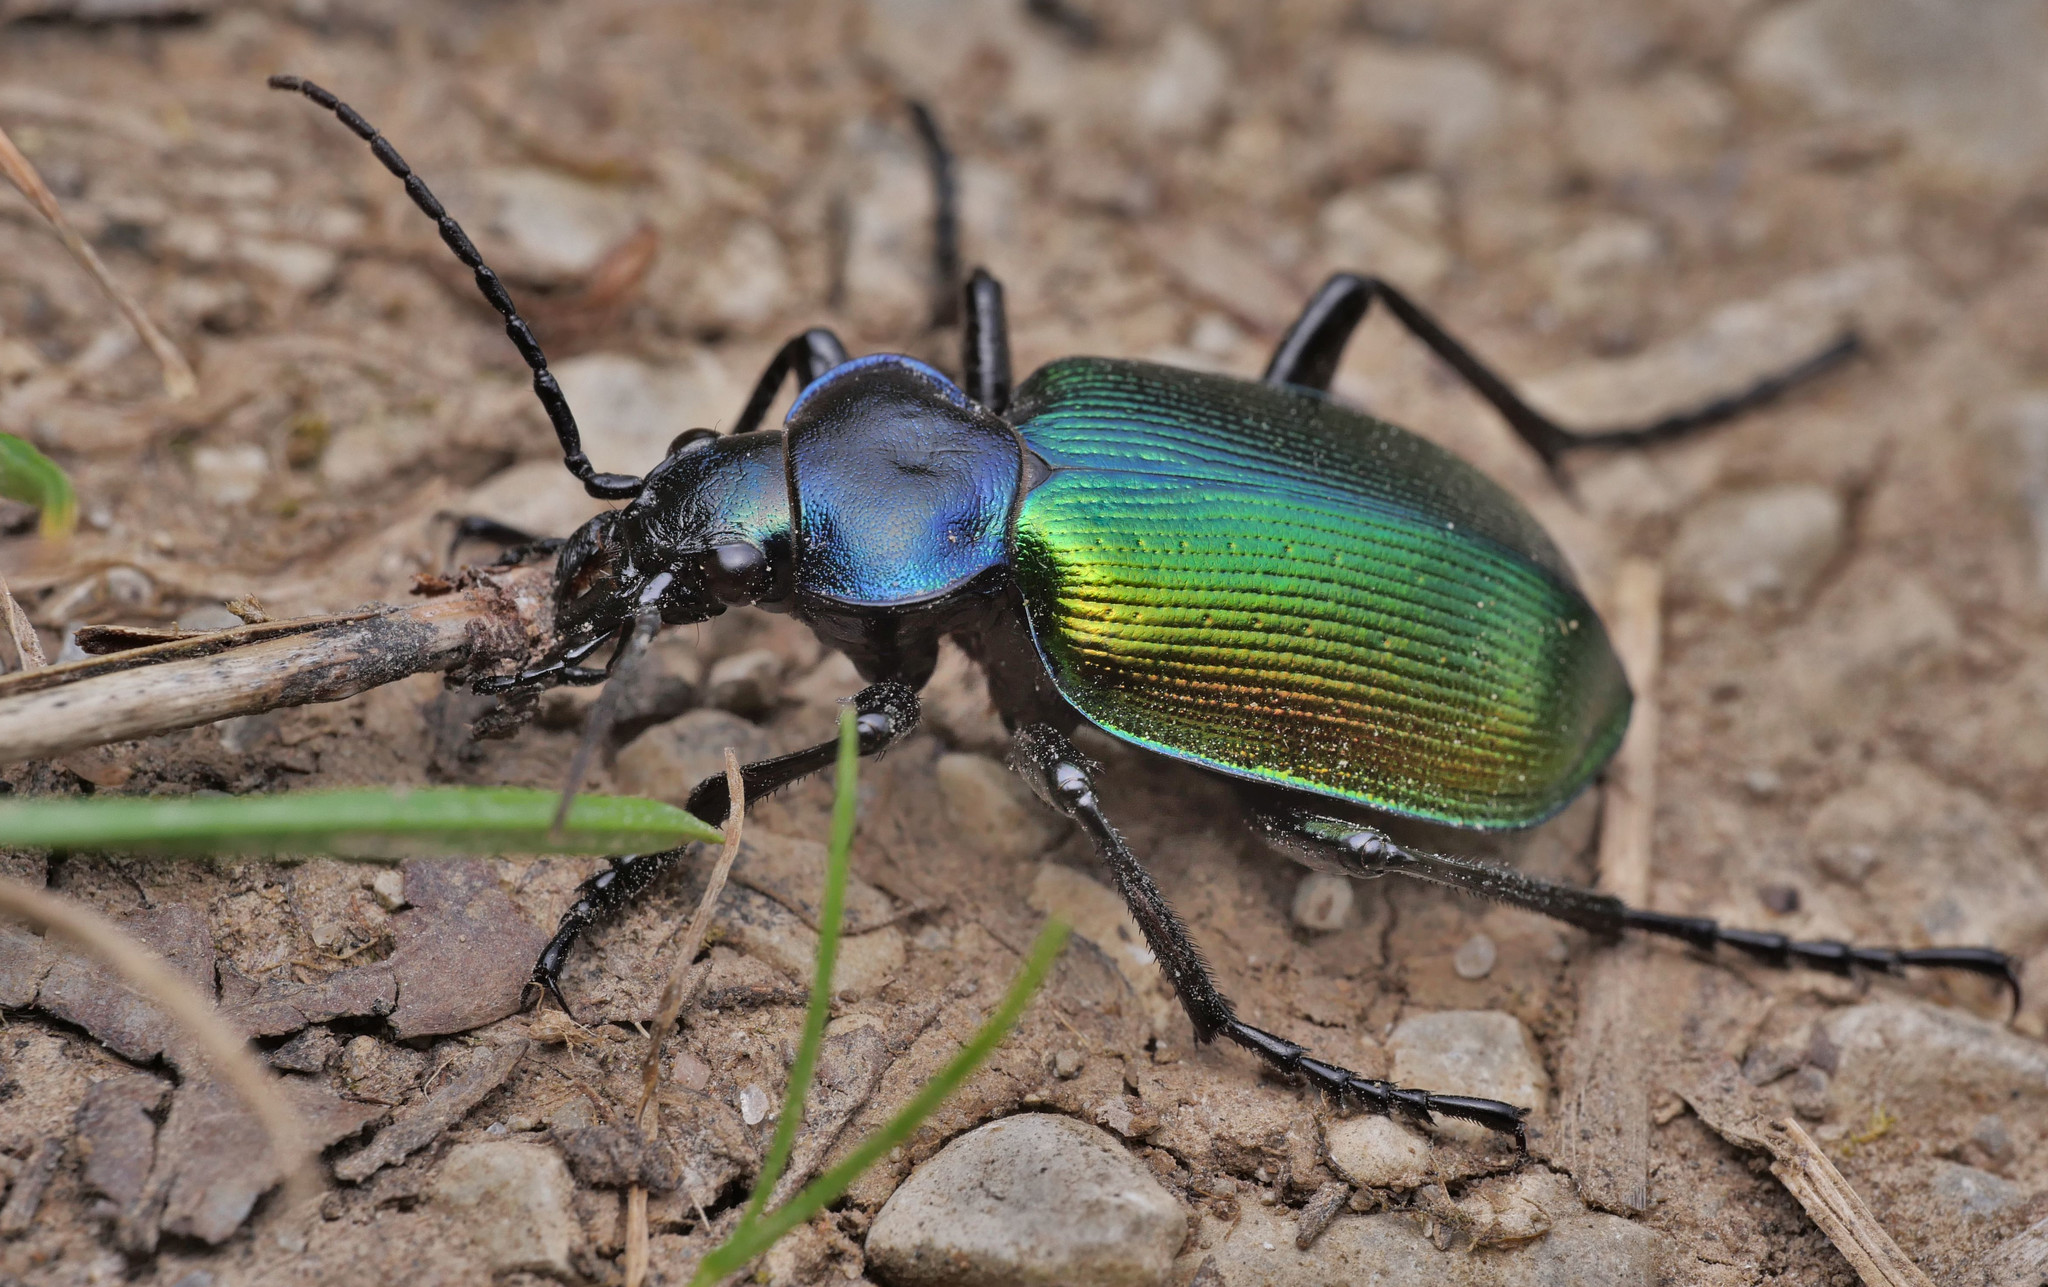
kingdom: Animalia
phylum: Arthropoda
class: Insecta
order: Coleoptera
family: Carabidae
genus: Calosoma
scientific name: Calosoma sycophanta
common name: Forest caterpillar hunter
